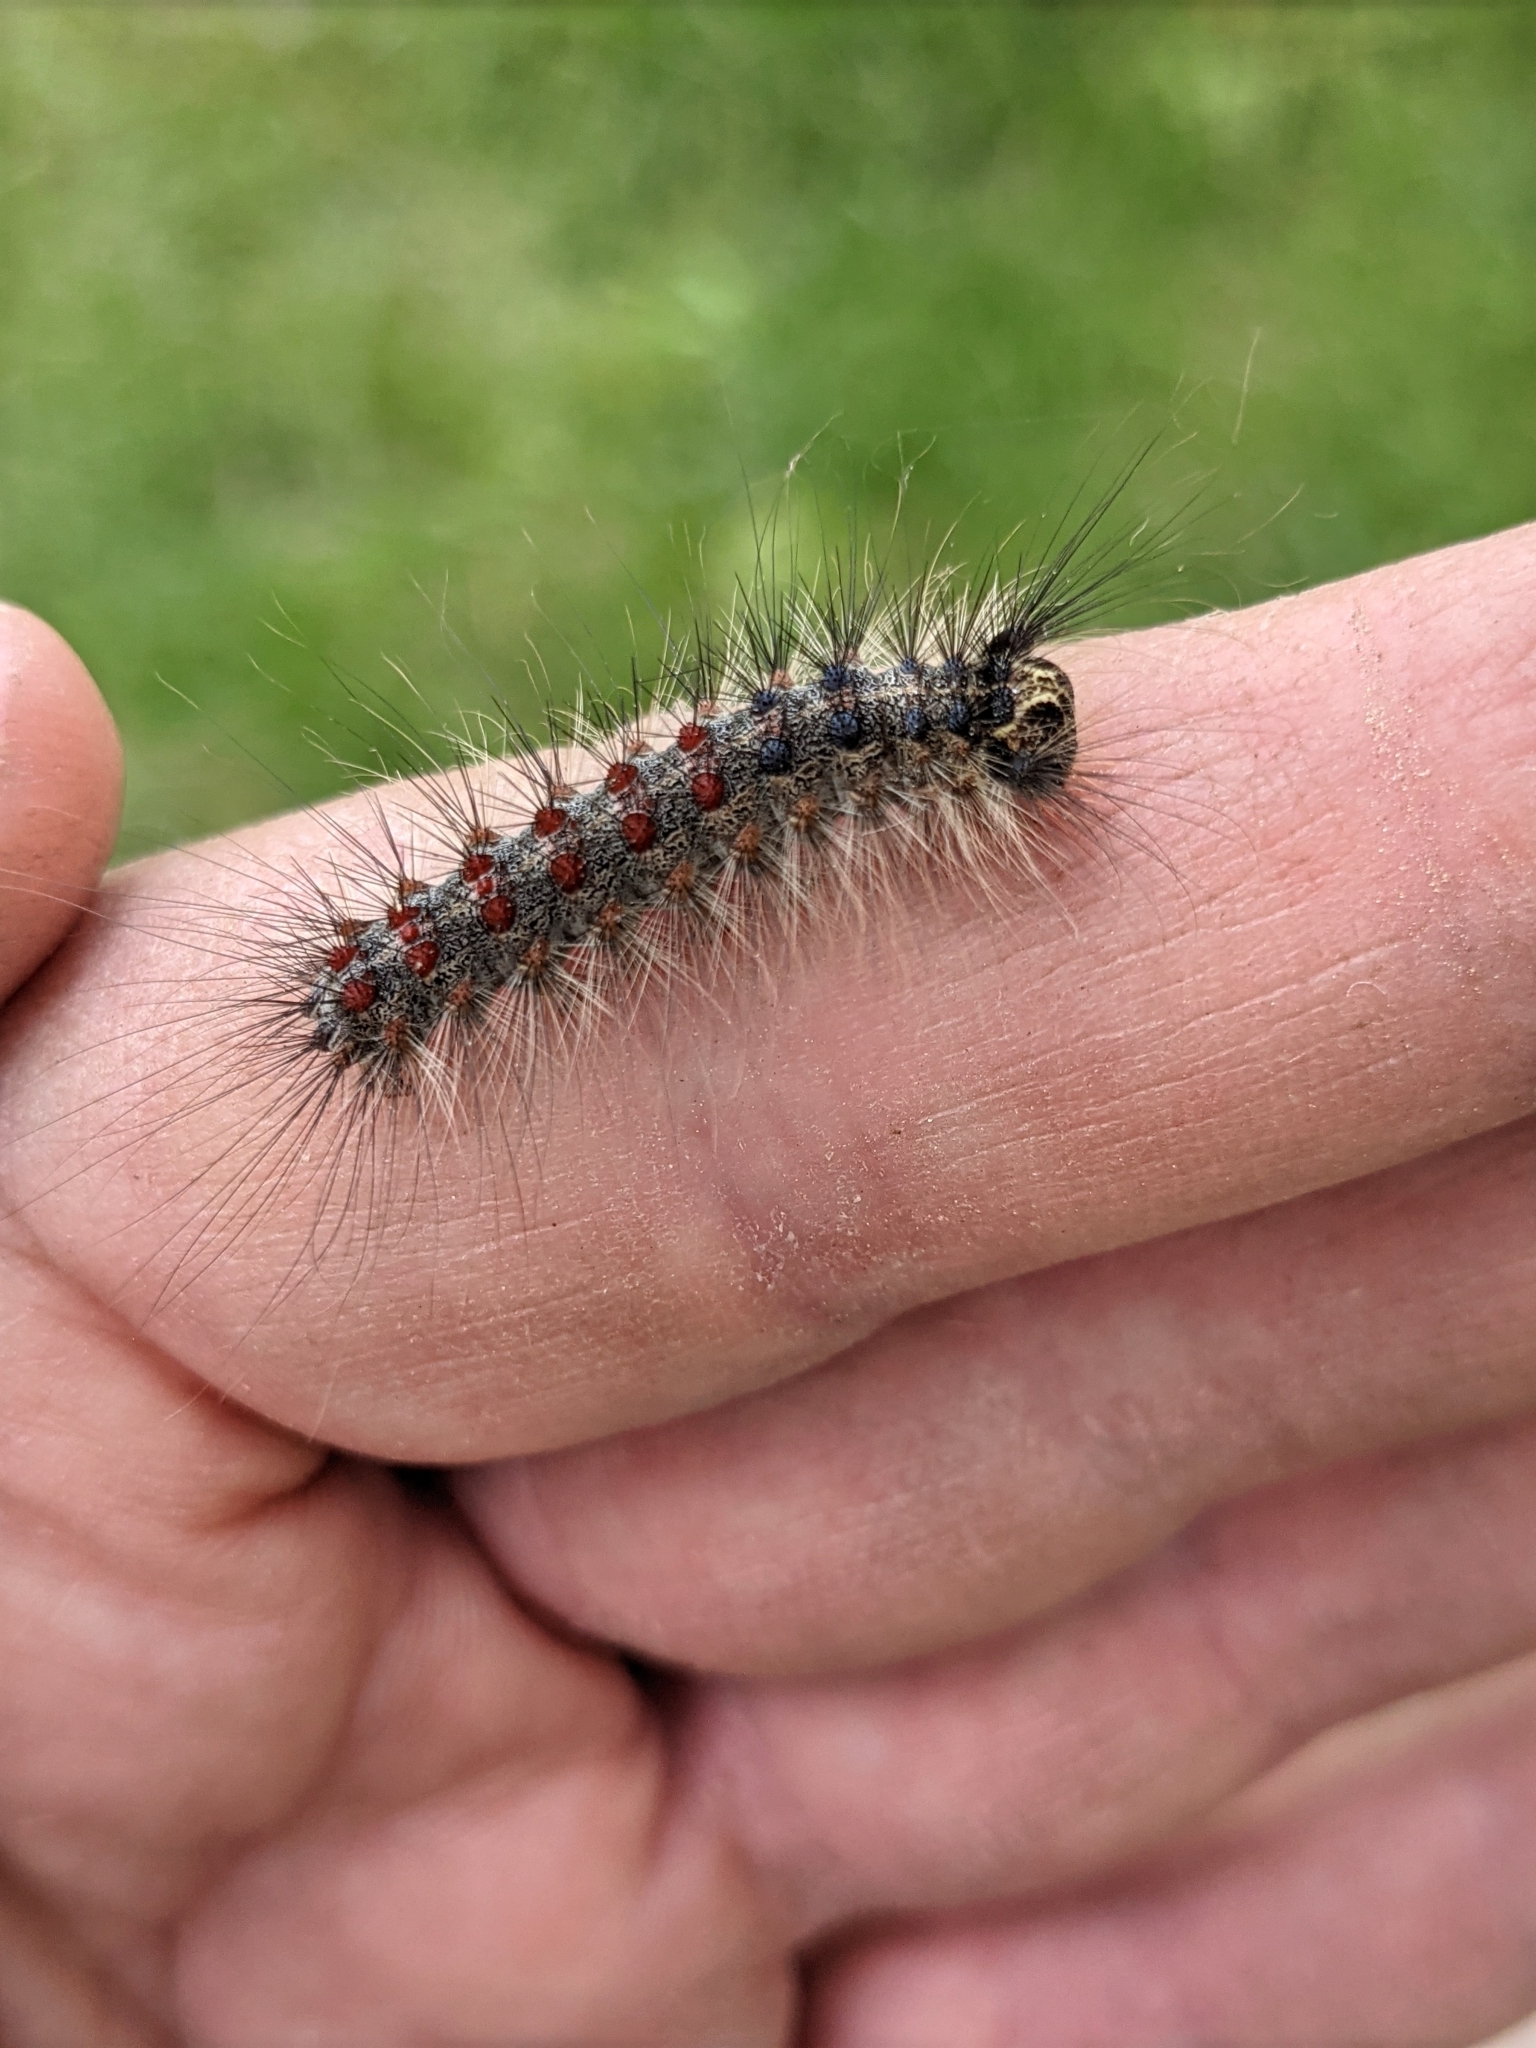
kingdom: Animalia
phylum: Arthropoda
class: Insecta
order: Lepidoptera
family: Erebidae
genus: Lymantria
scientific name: Lymantria dispar
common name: Gypsy moth
